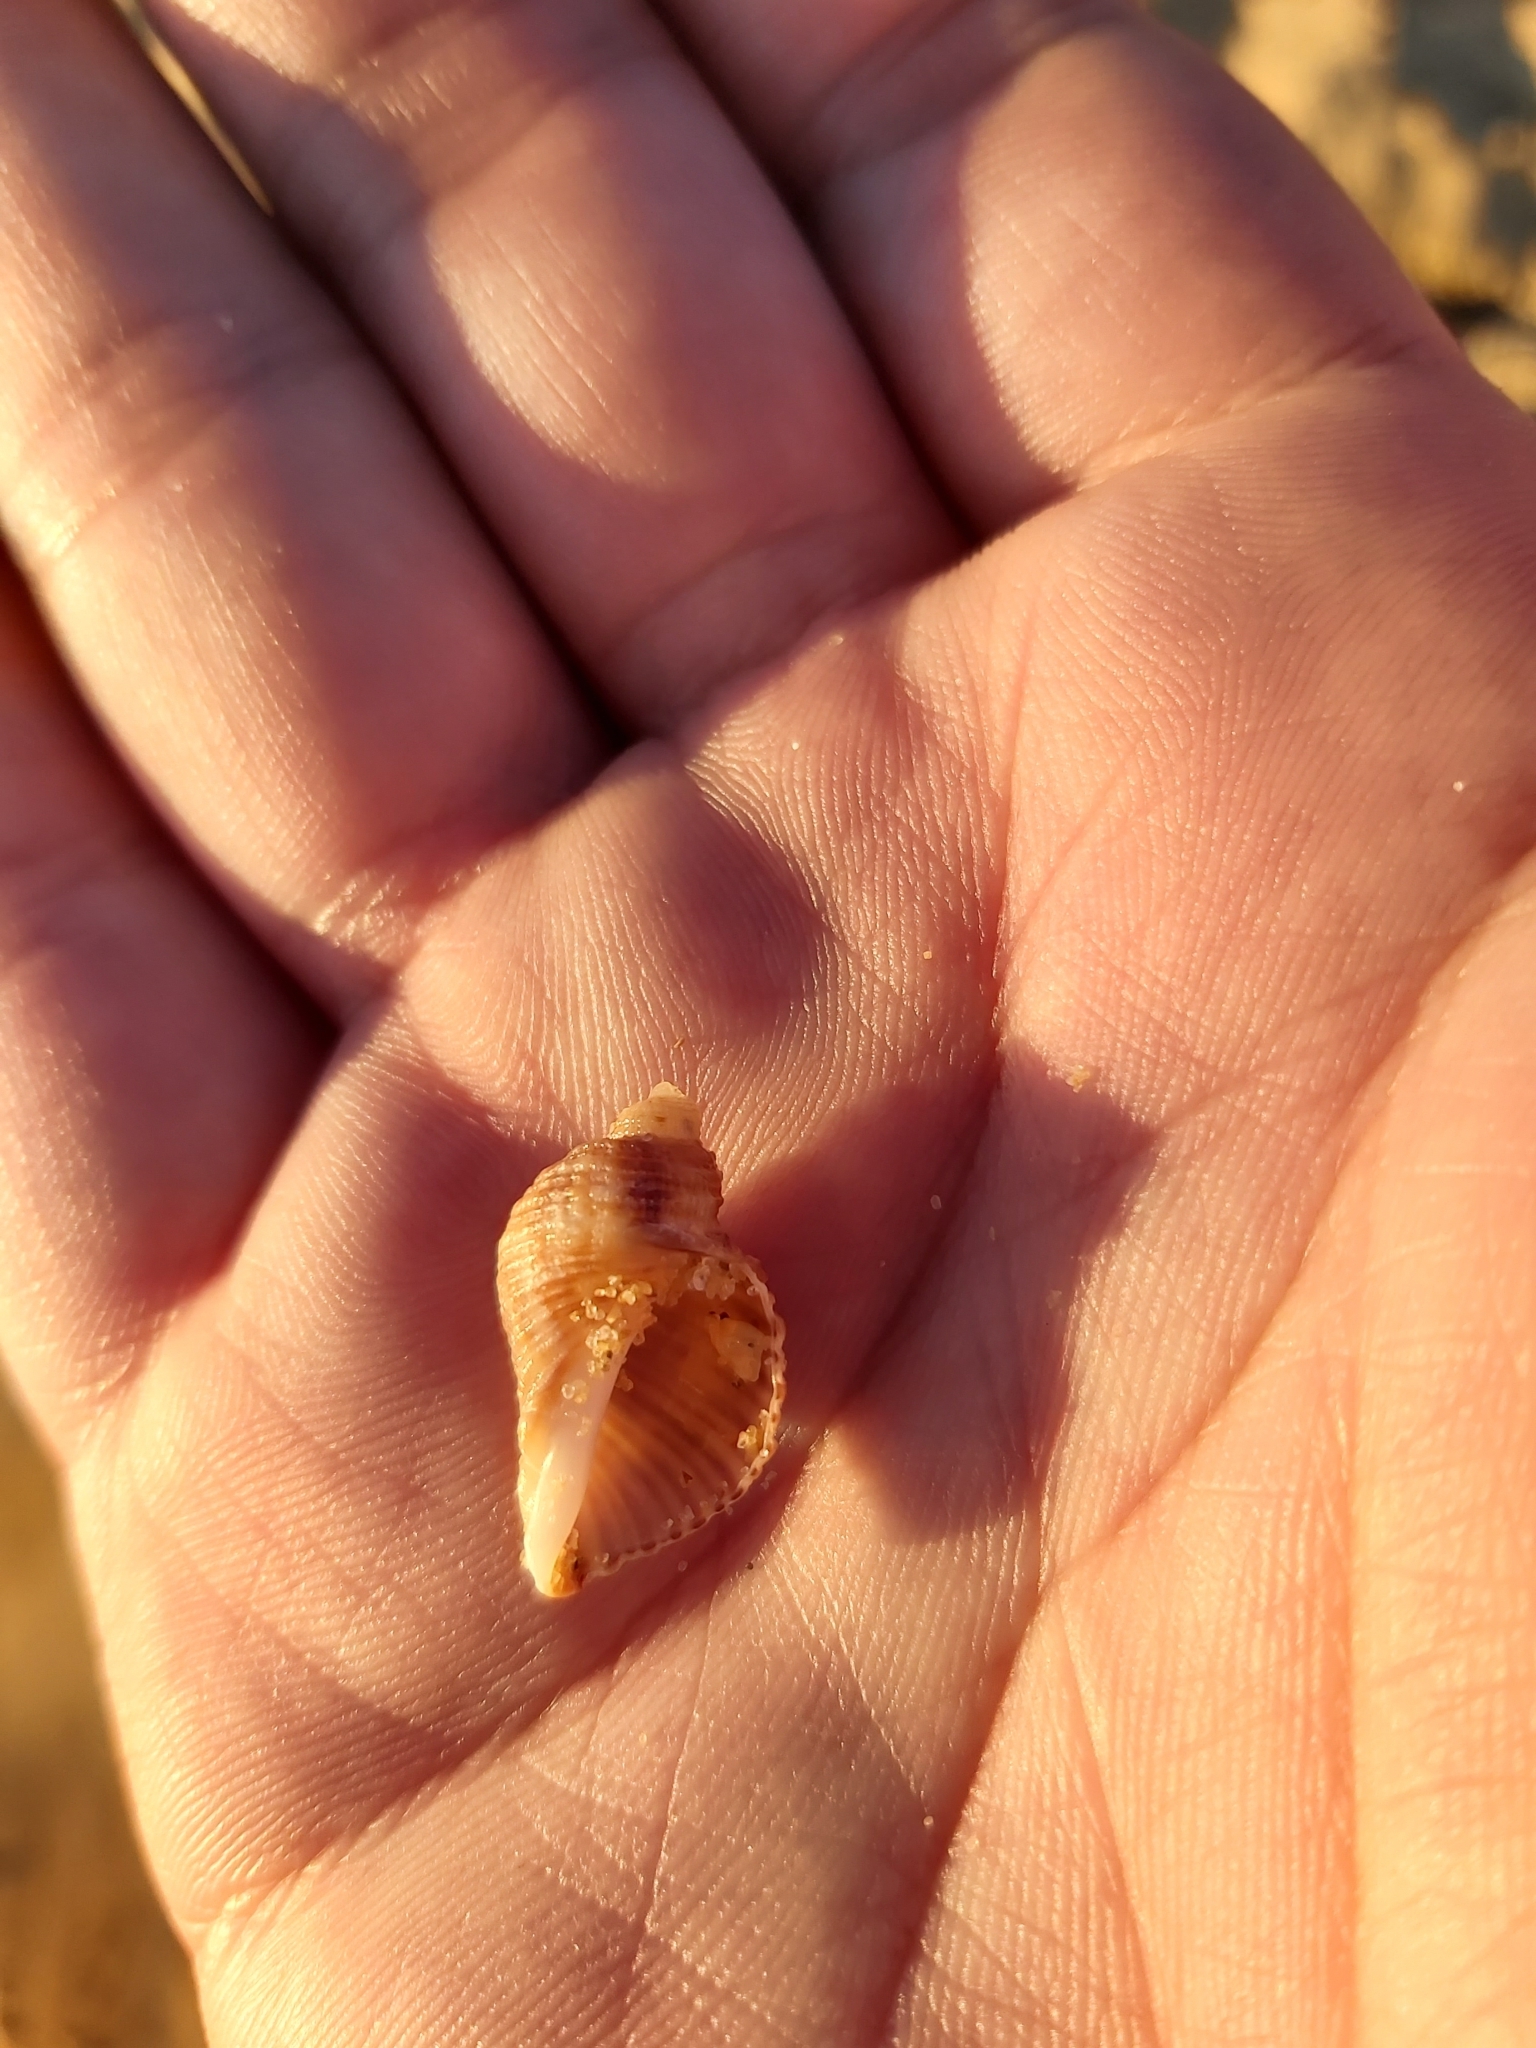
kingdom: Animalia
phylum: Mollusca
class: Gastropoda
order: Neogastropoda
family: Muricidae
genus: Dicathais
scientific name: Dicathais orbita
